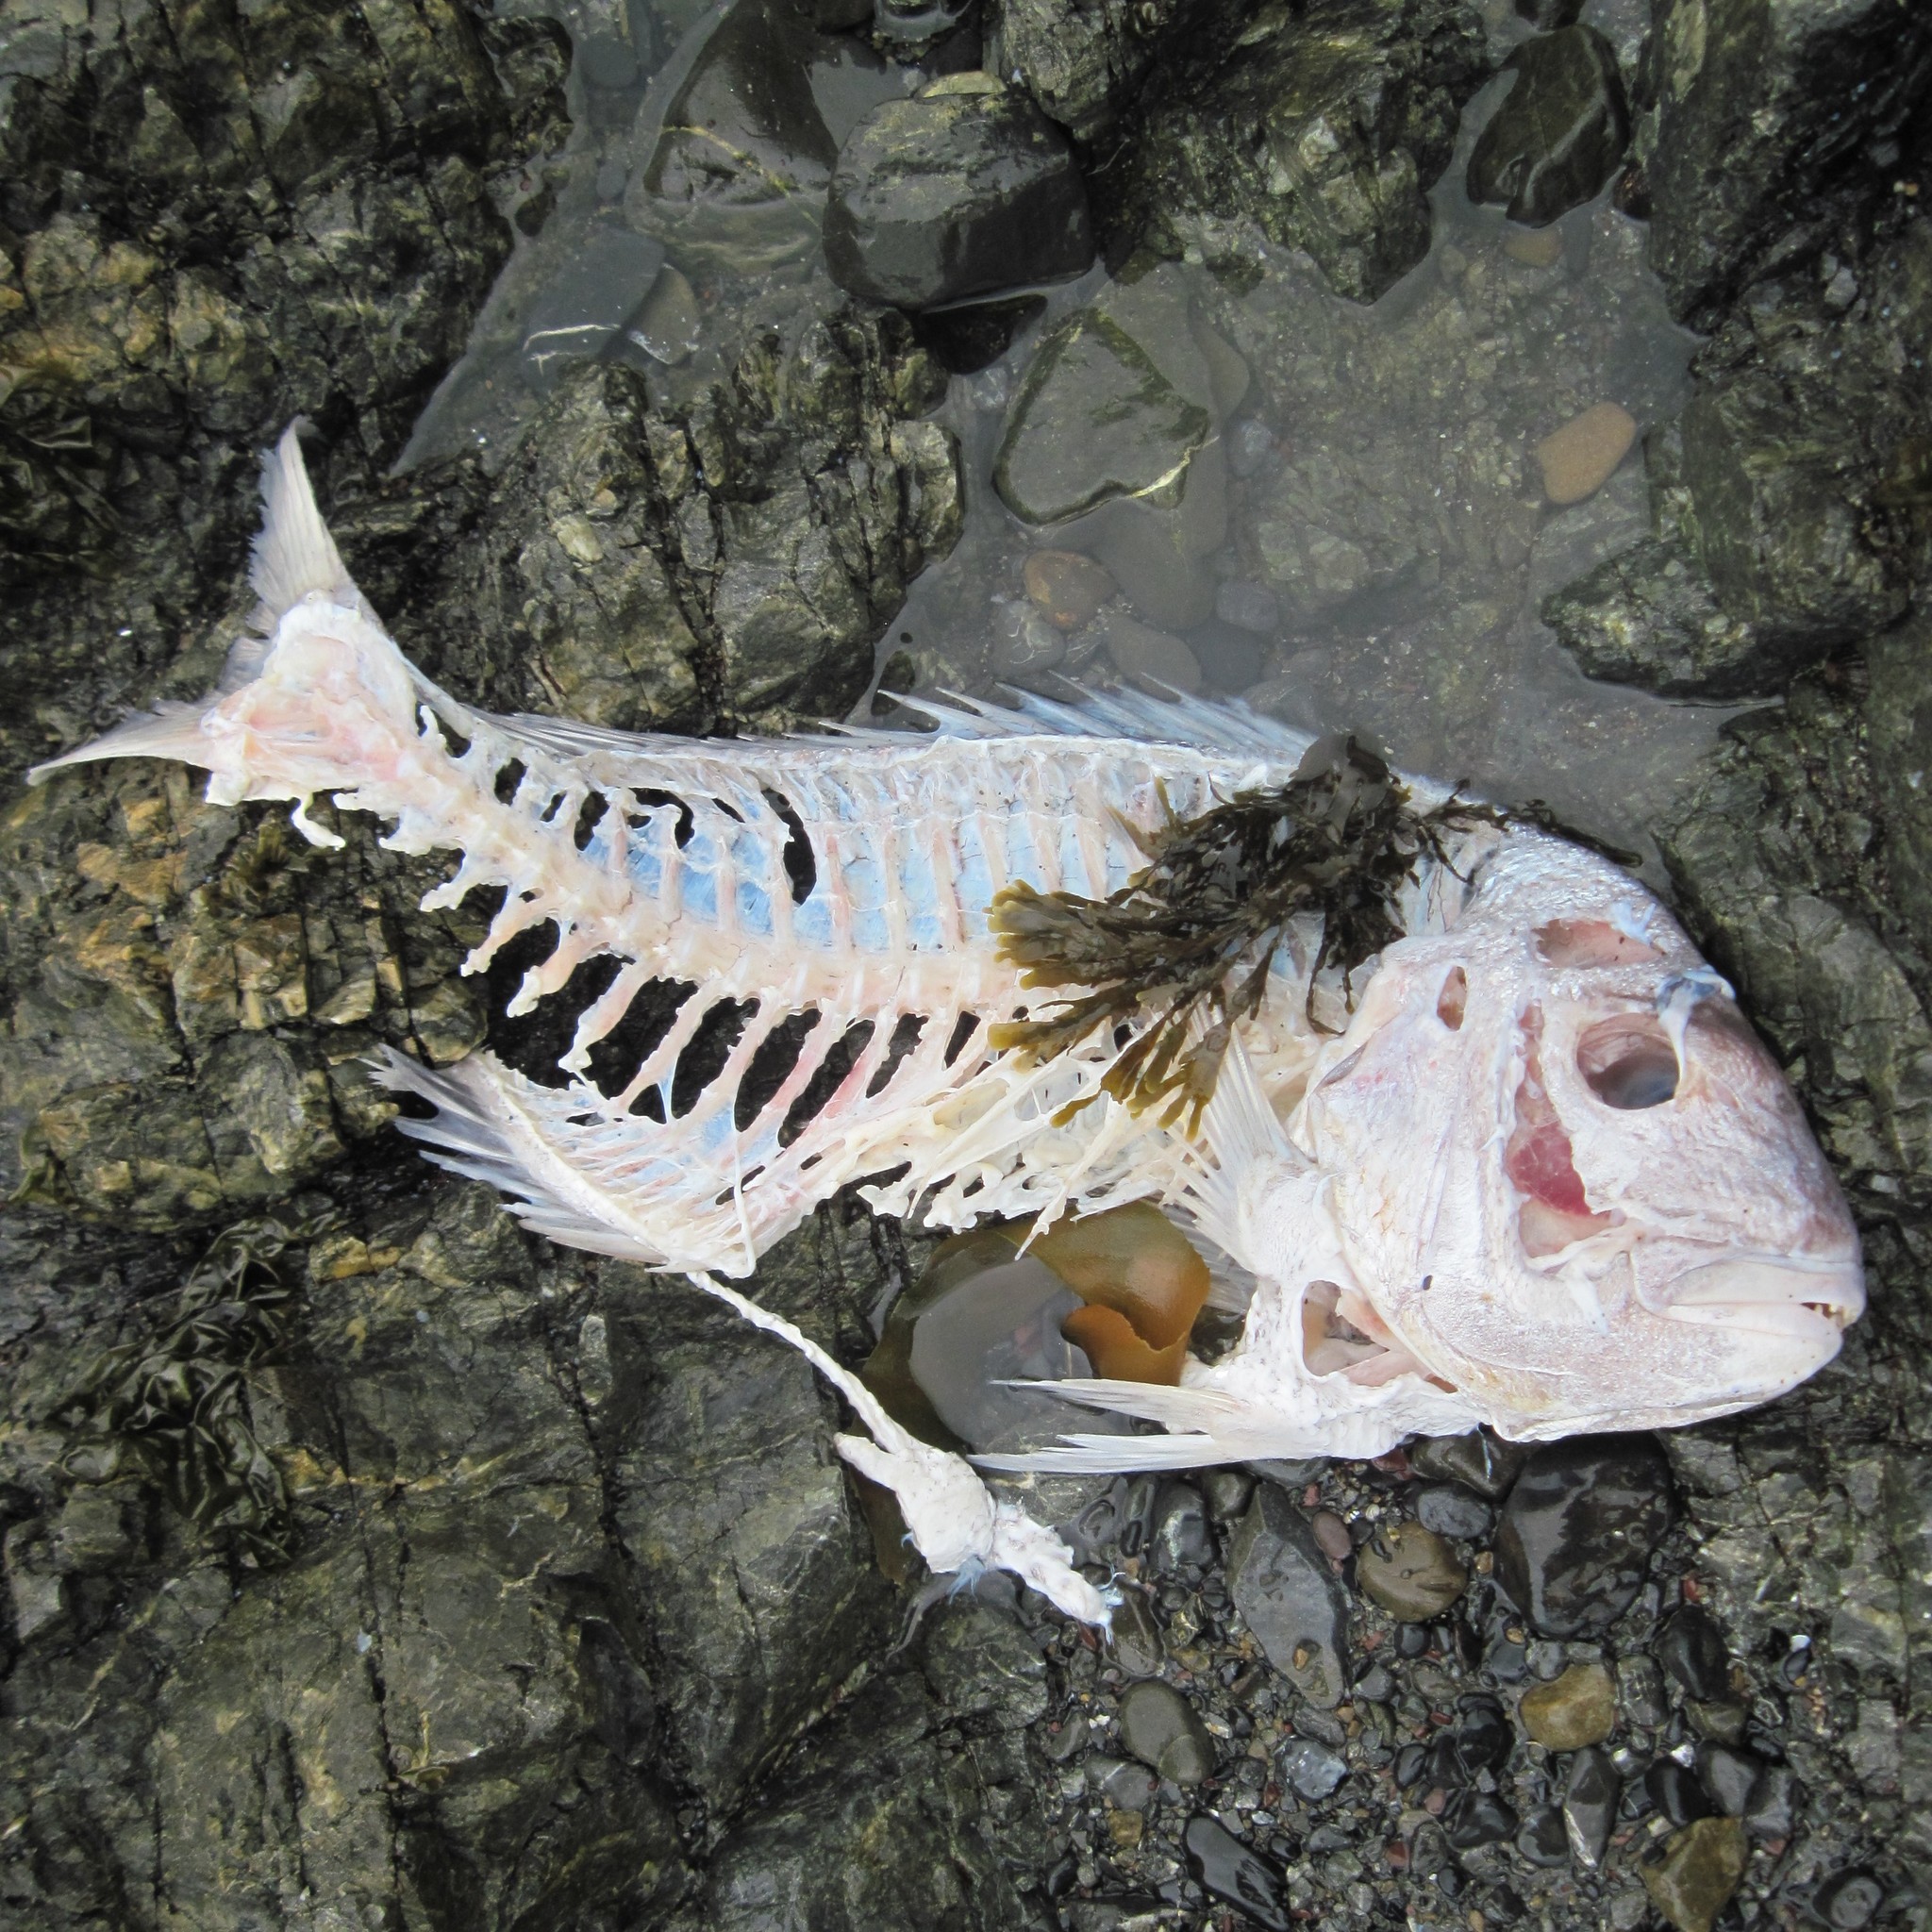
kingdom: Animalia
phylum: Chordata
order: Perciformes
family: Sparidae
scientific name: Sparidae
